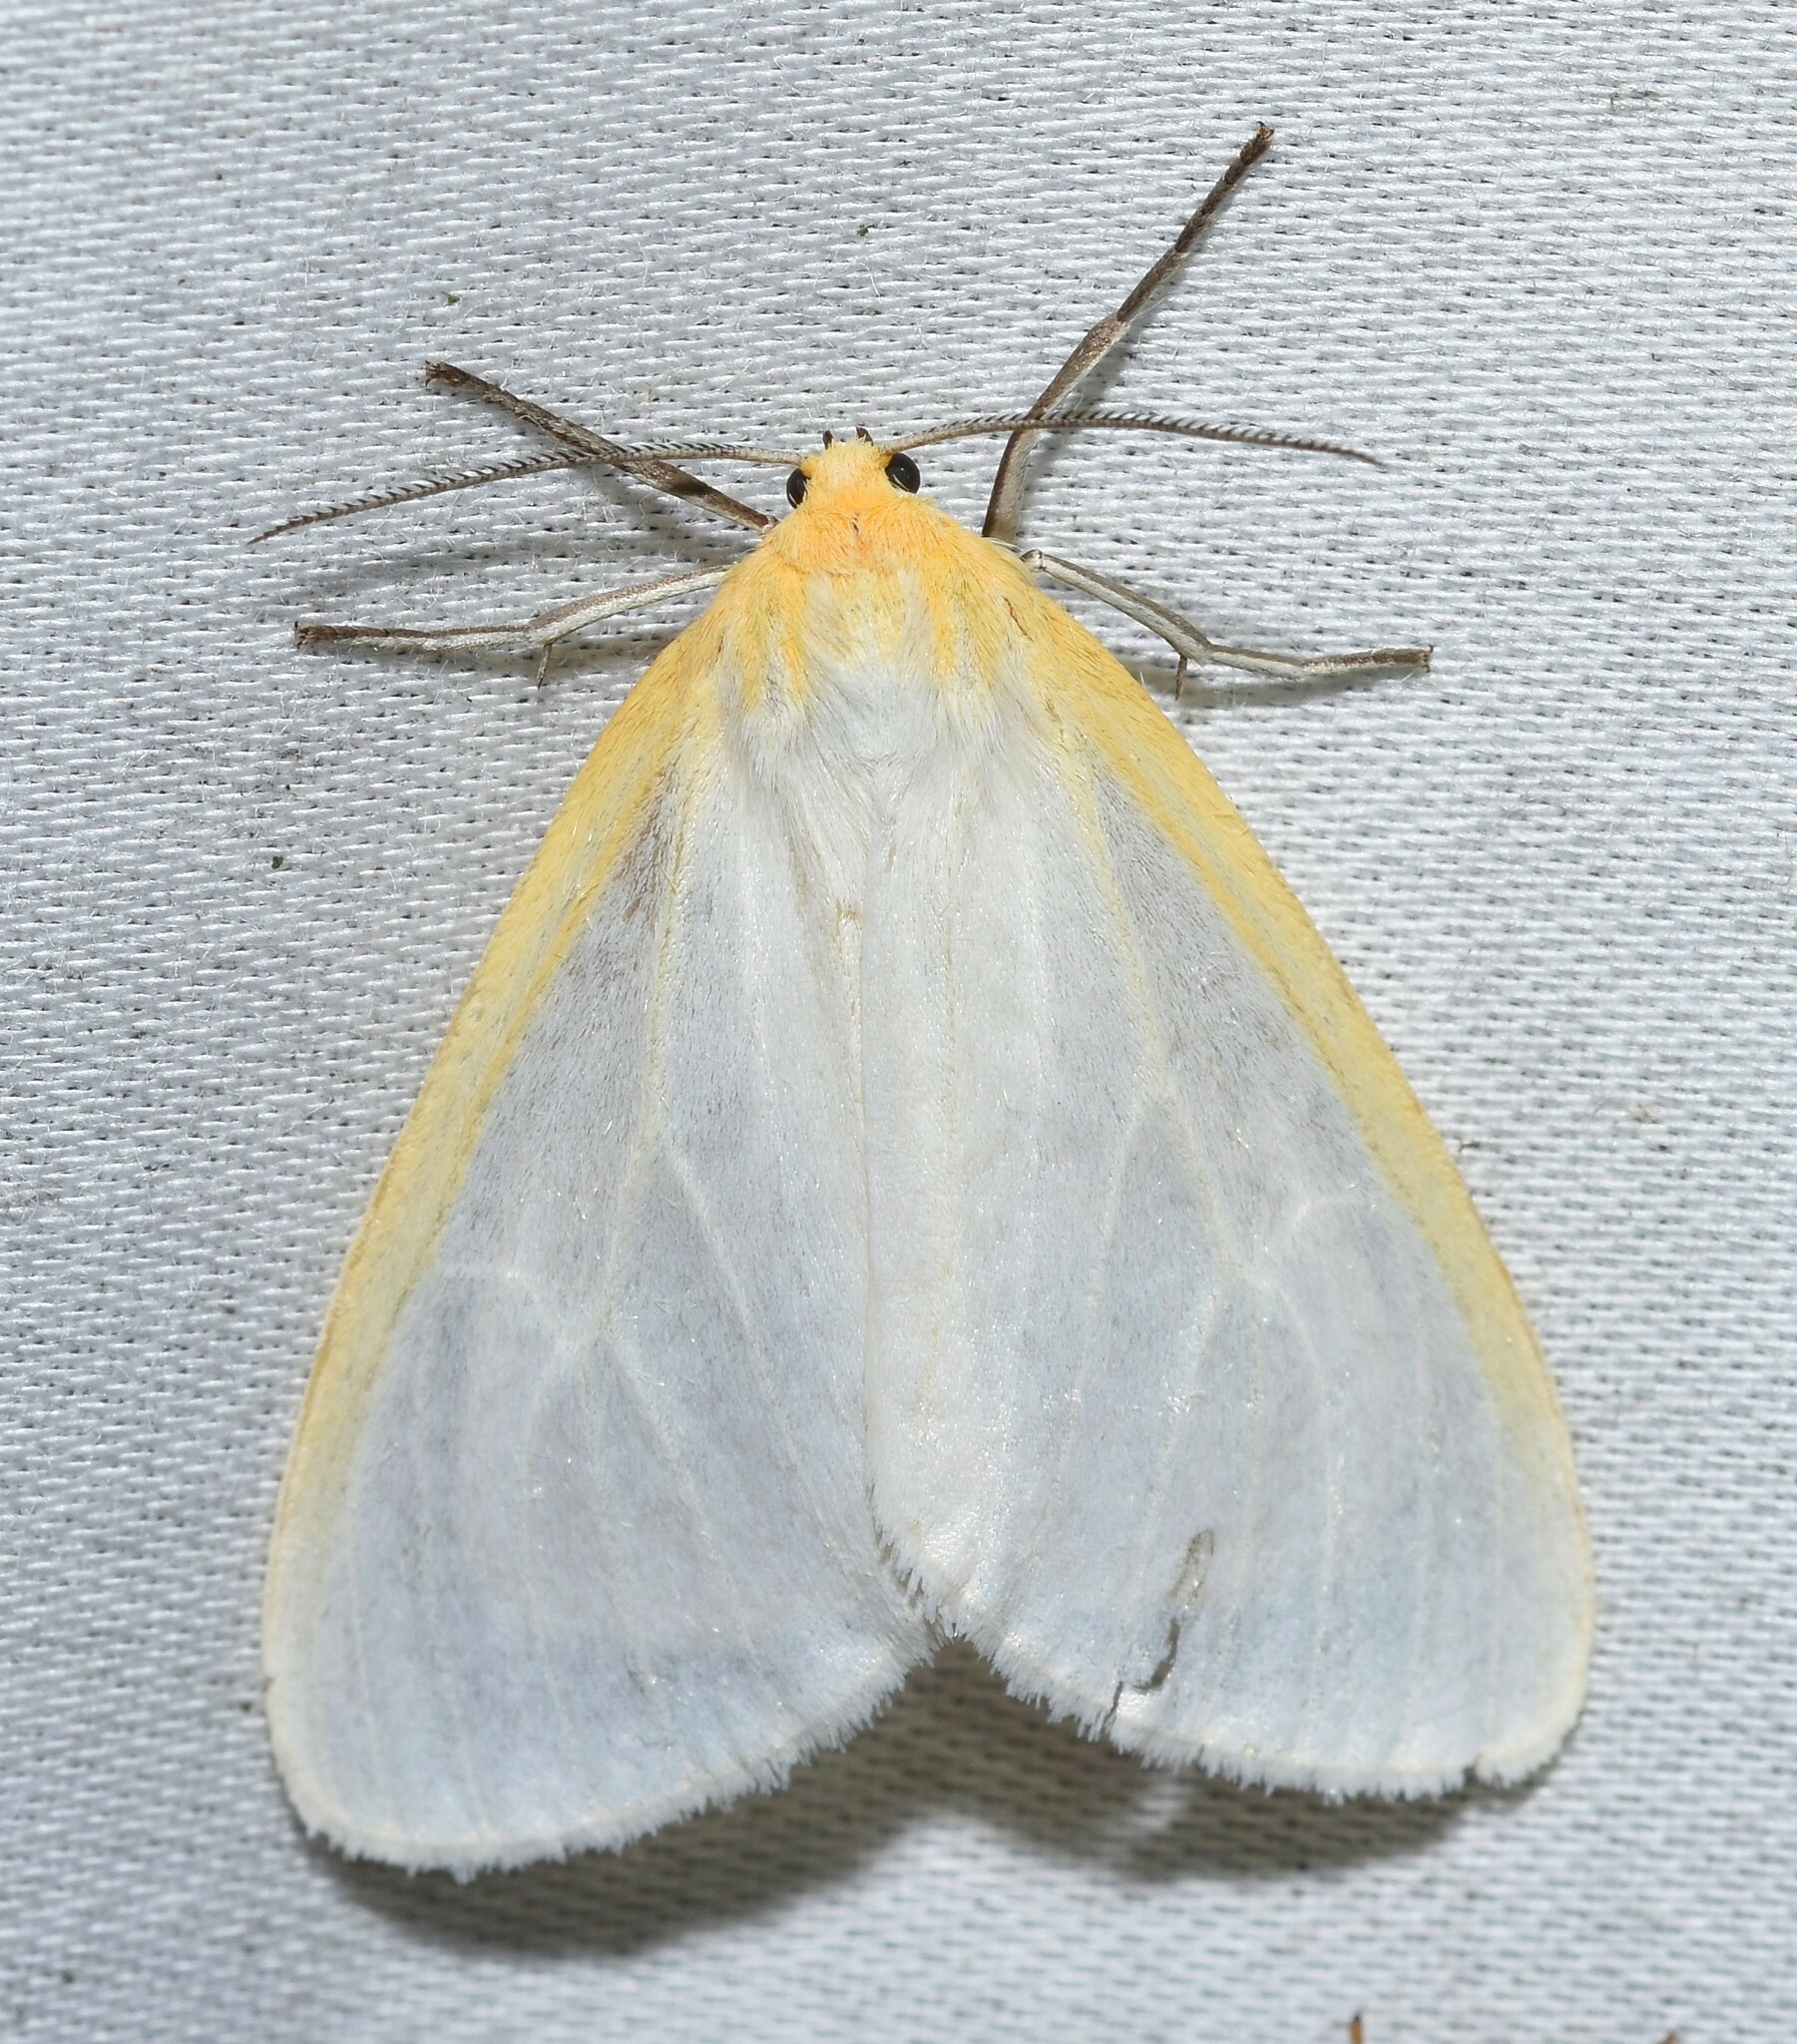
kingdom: Animalia
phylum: Arthropoda
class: Insecta
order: Lepidoptera
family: Erebidae
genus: Cycnia
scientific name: Cycnia tenera
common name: Delicate cycnia moth
